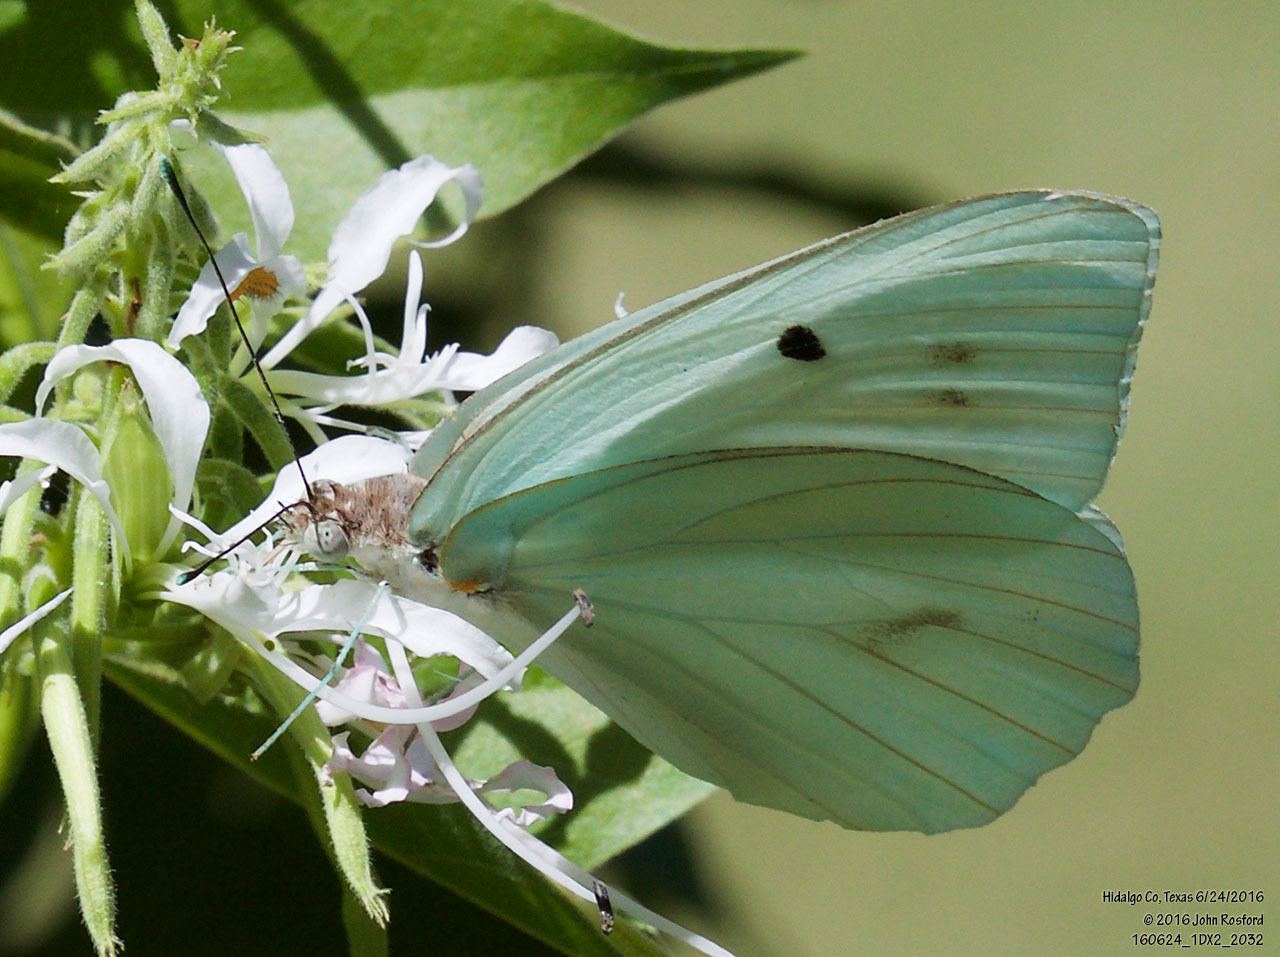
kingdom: Animalia
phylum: Arthropoda
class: Insecta
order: Lepidoptera
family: Pieridae
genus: Ganyra
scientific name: Ganyra josephina
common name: Giant white
